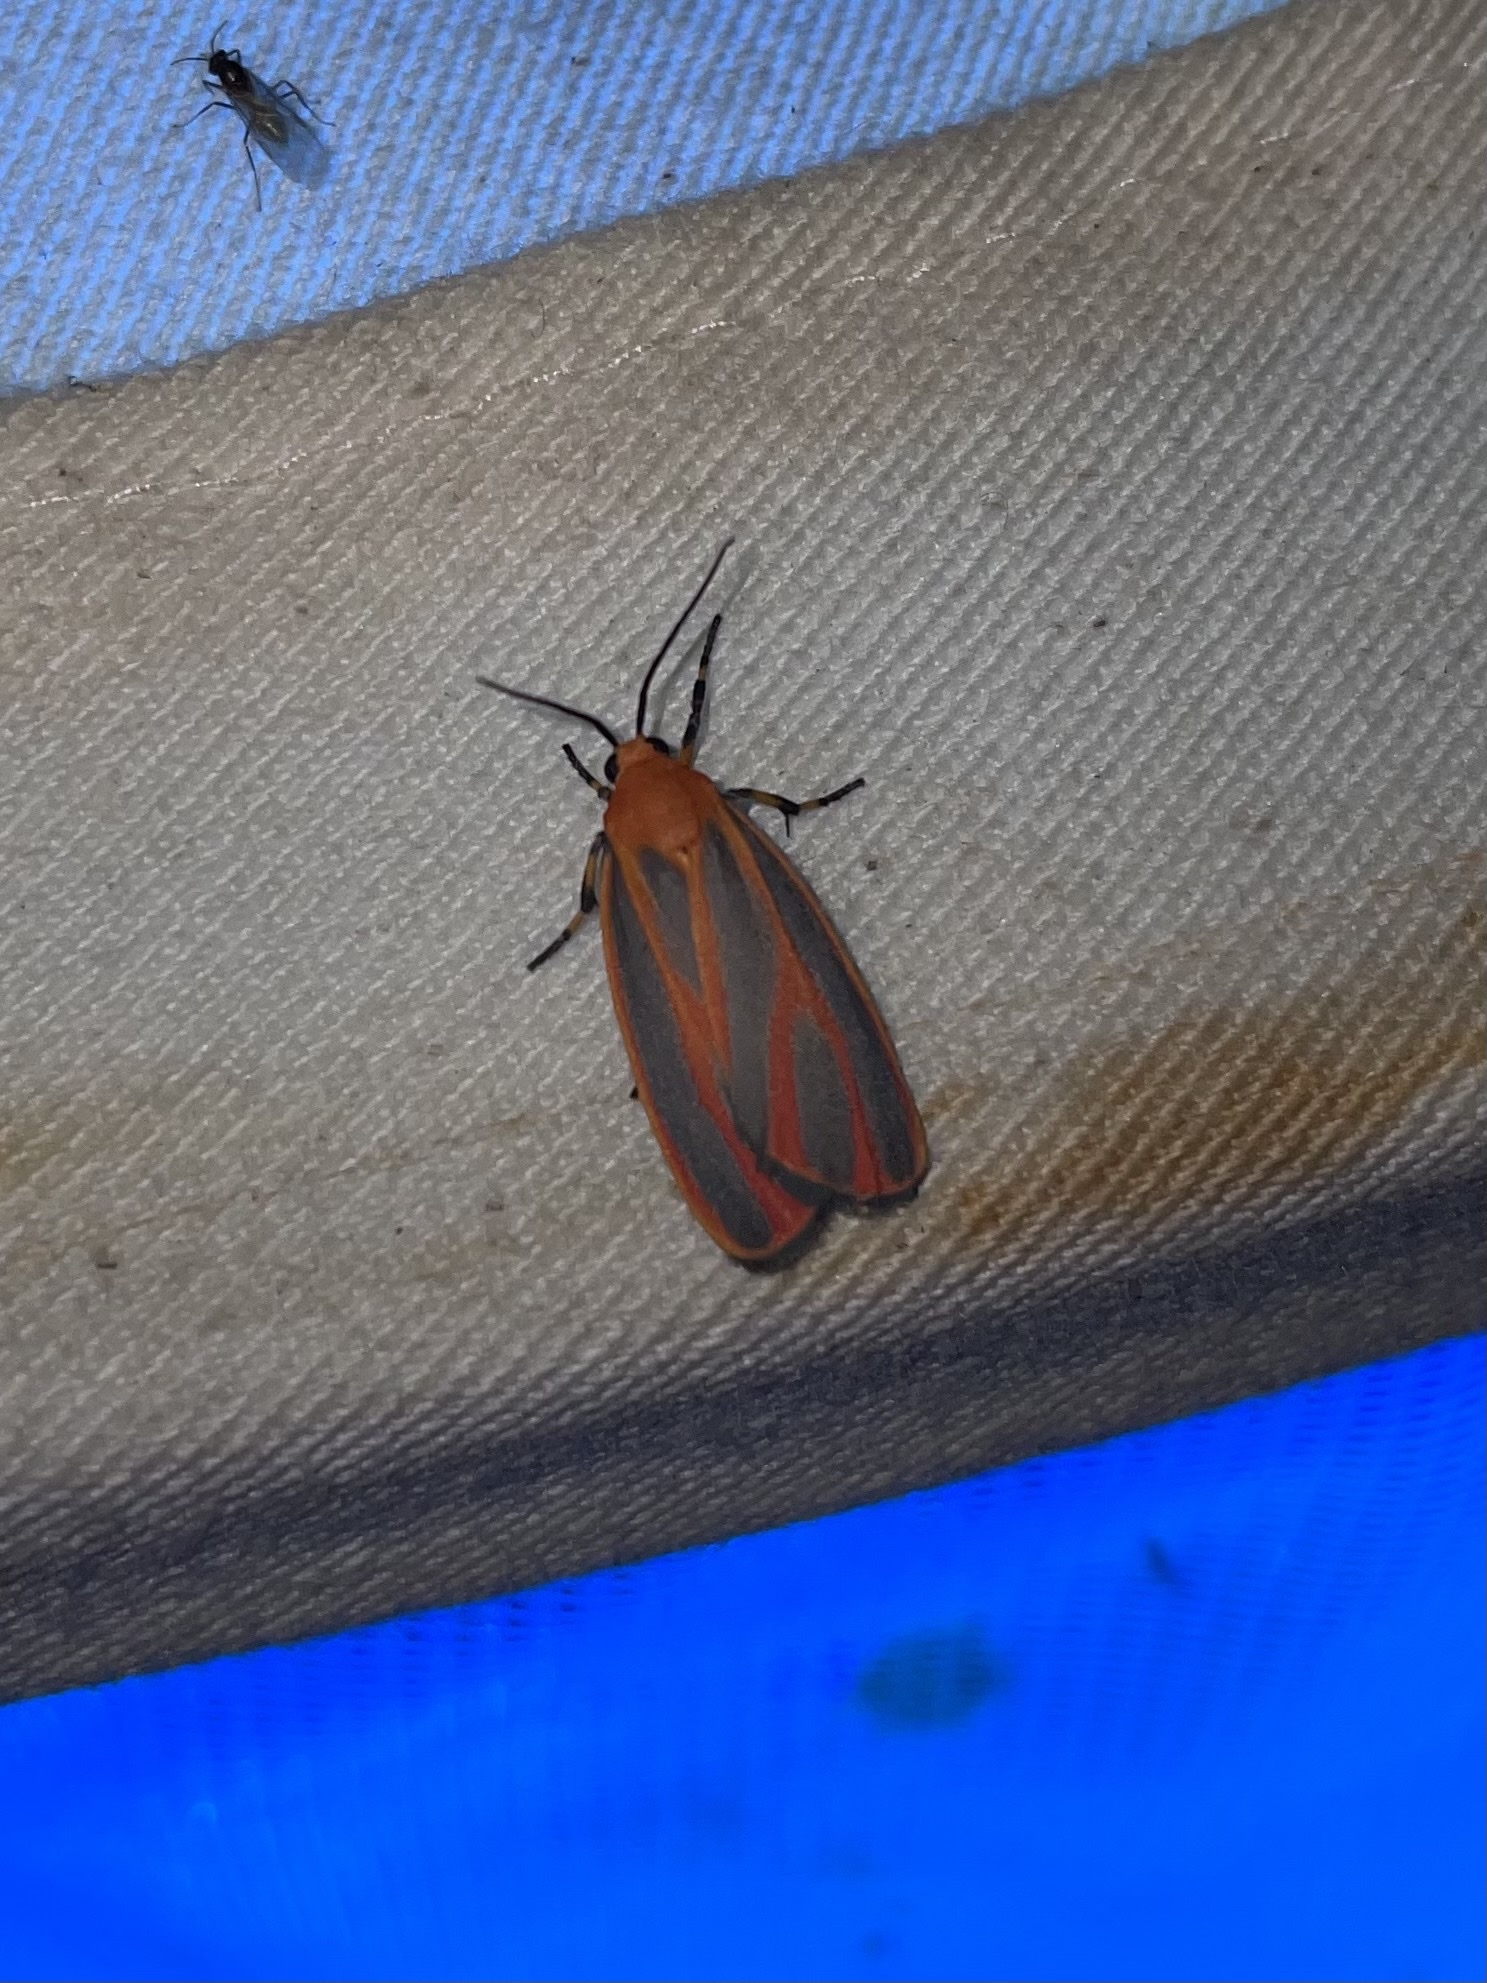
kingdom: Animalia
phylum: Arthropoda
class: Insecta
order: Lepidoptera
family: Erebidae
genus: Hypoprepia
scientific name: Hypoprepia miniata
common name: Scarlet-winged lichen moth
